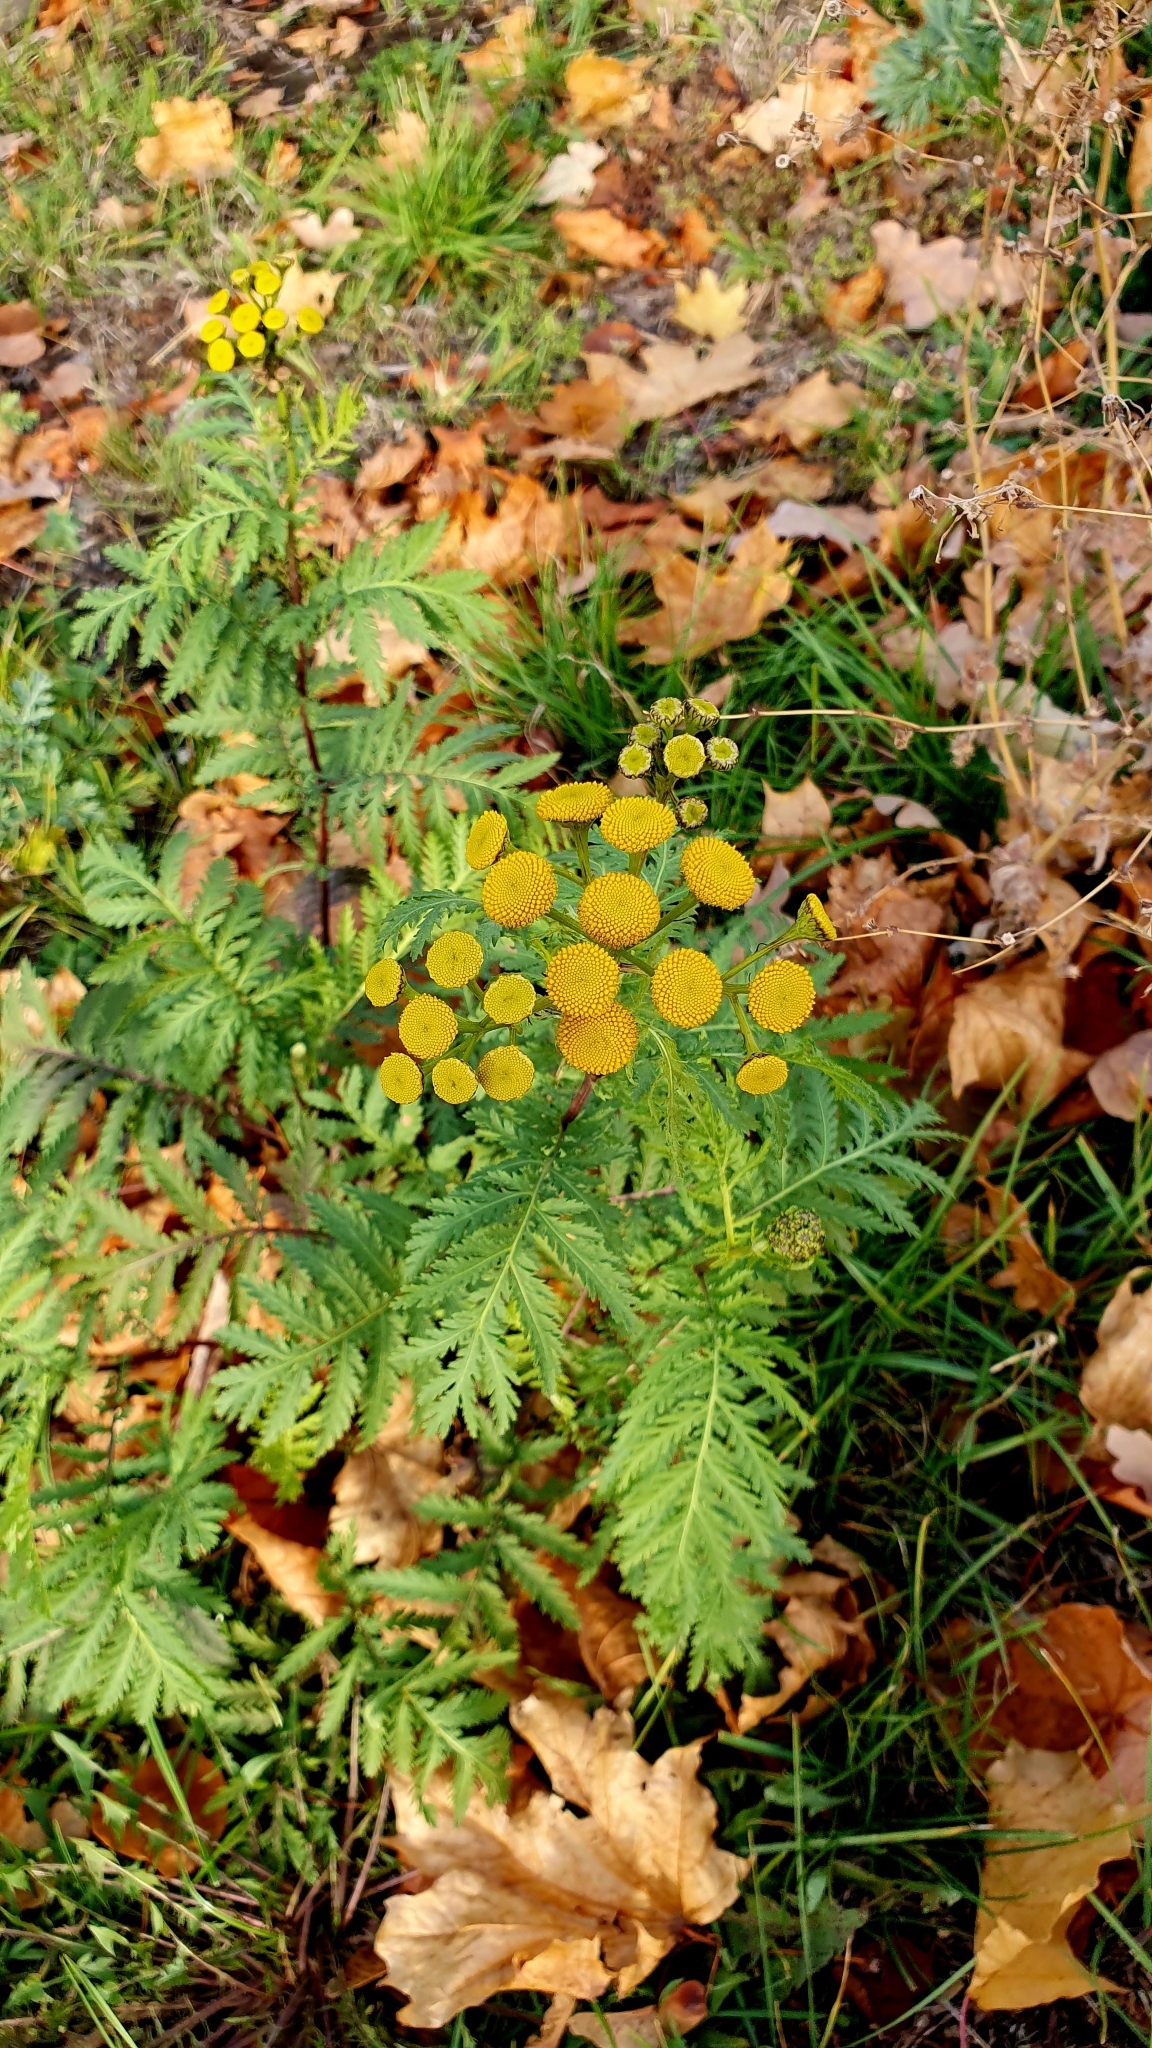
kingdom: Plantae
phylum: Tracheophyta
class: Magnoliopsida
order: Asterales
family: Asteraceae
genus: Tanacetum
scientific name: Tanacetum vulgare
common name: Common tansy
